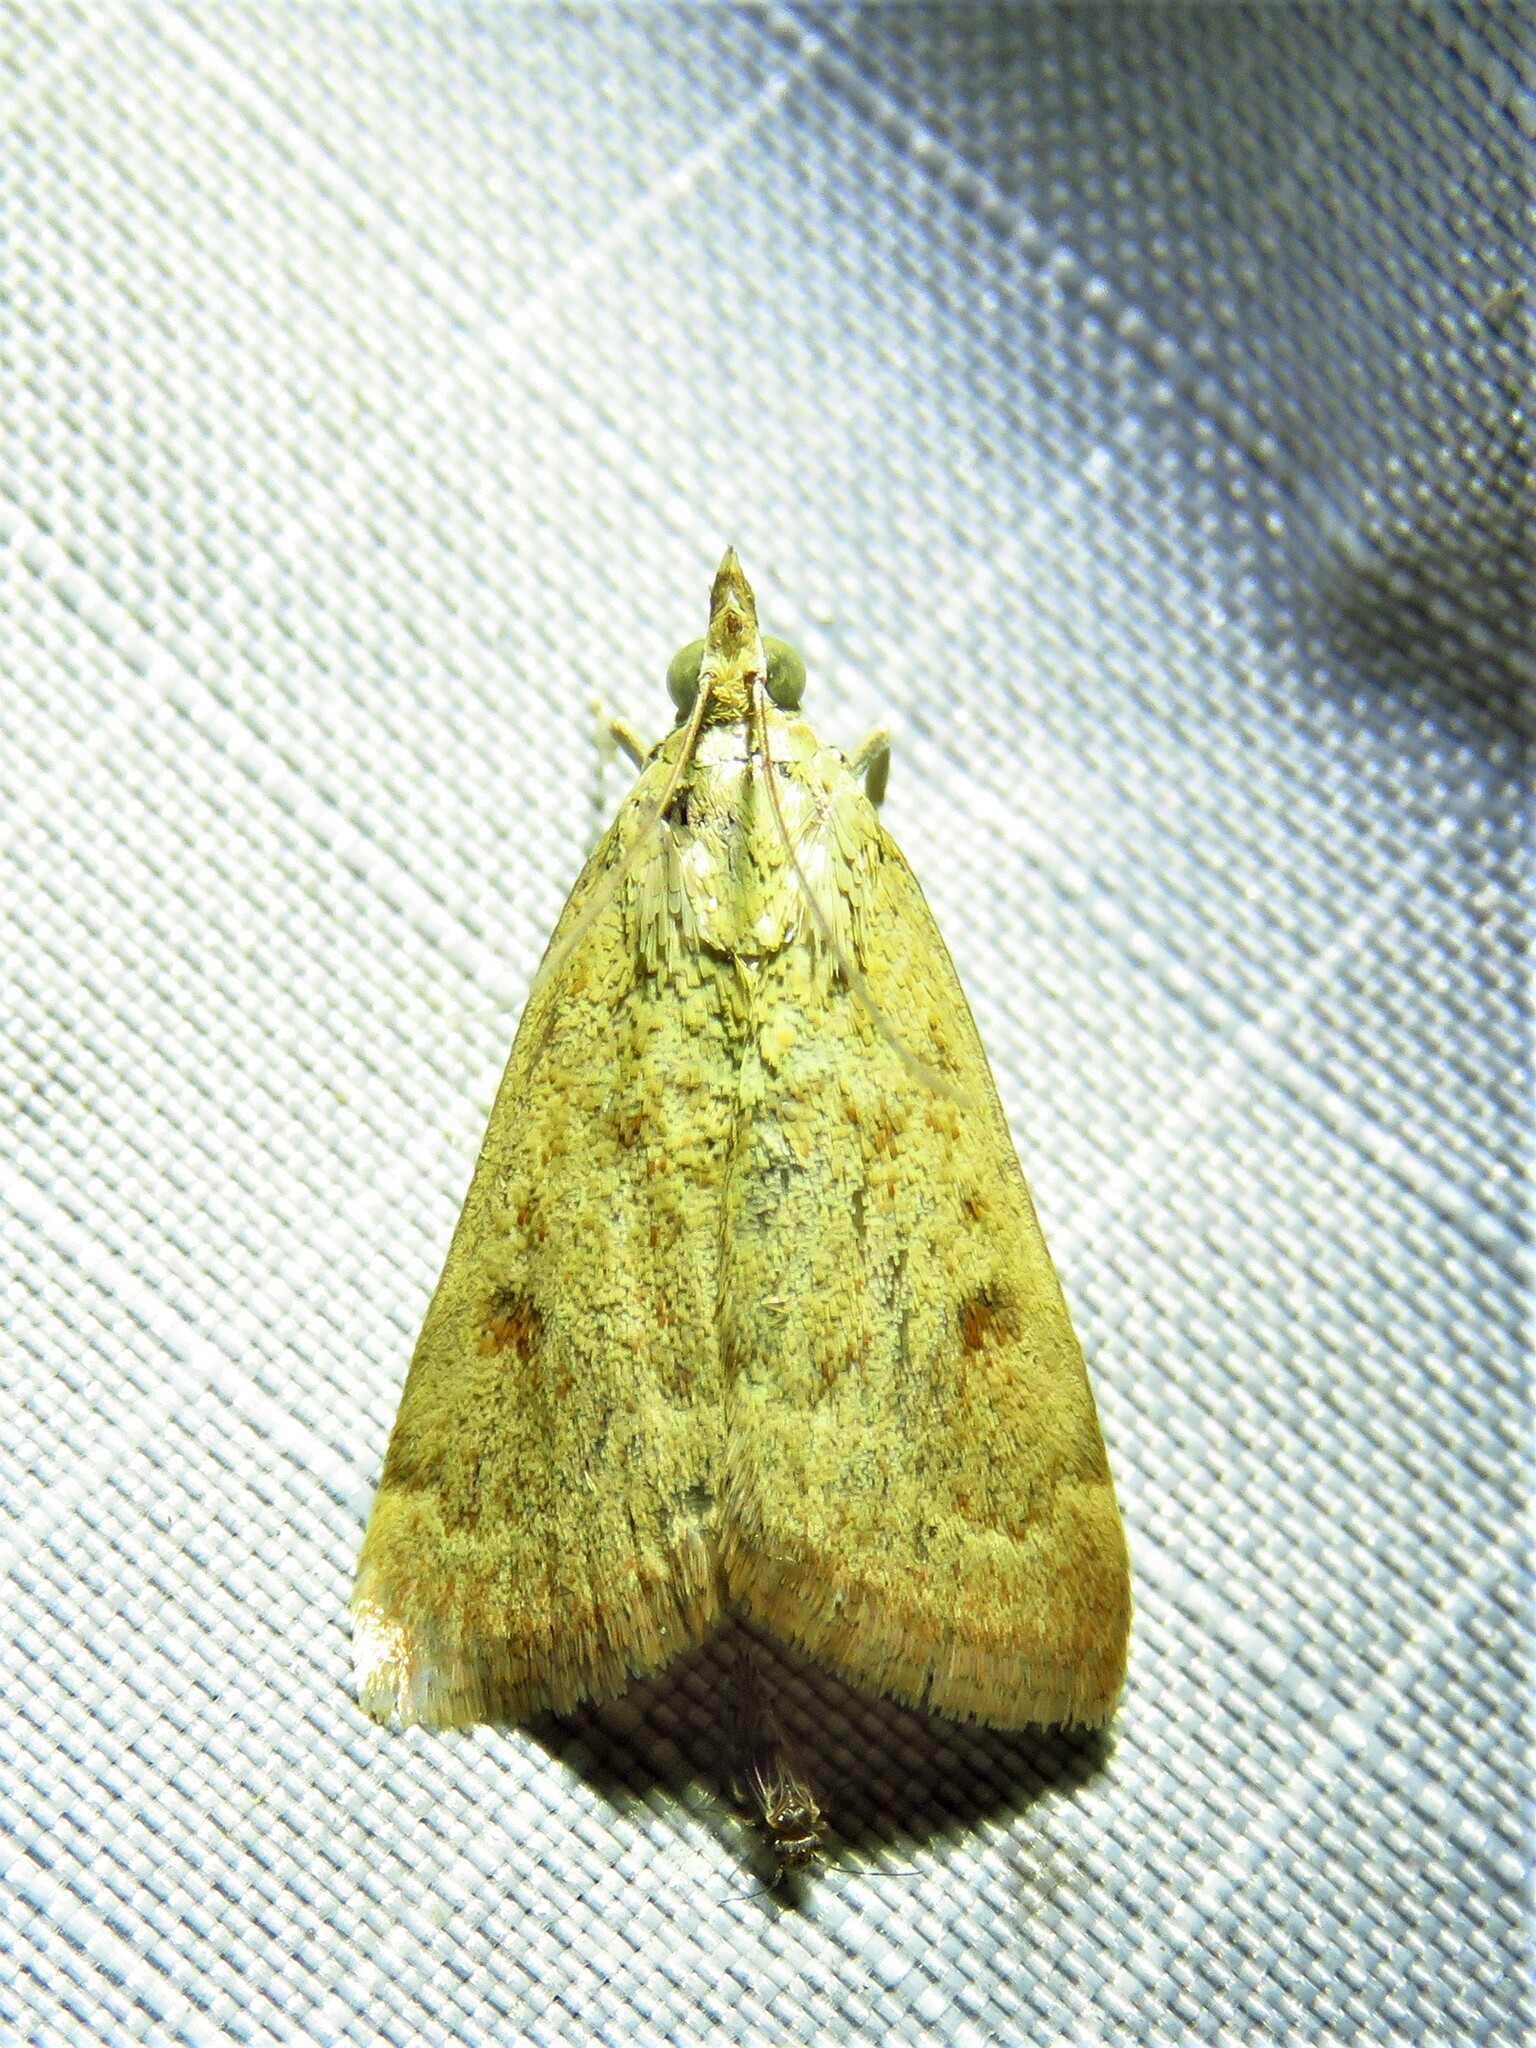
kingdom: Animalia
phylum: Arthropoda
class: Insecta
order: Lepidoptera
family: Crambidae
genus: Achyra
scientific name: Achyra rantalis
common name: Garden webworm
